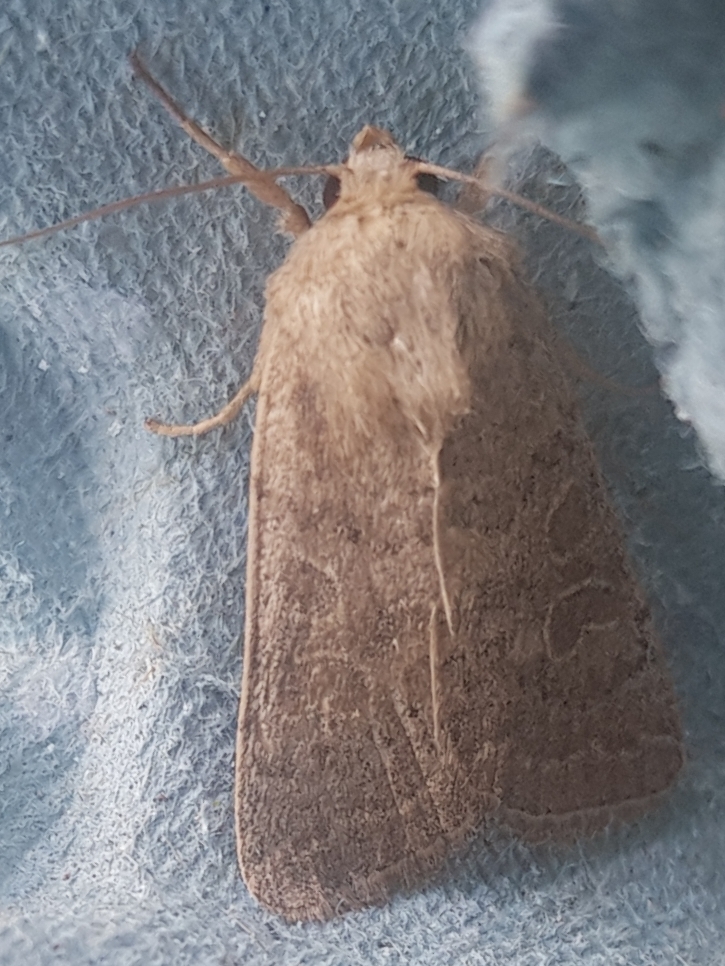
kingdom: Animalia
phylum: Arthropoda
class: Insecta
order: Lepidoptera
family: Noctuidae
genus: Hoplodrina
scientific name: Hoplodrina ambigua
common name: Vine's rustic
